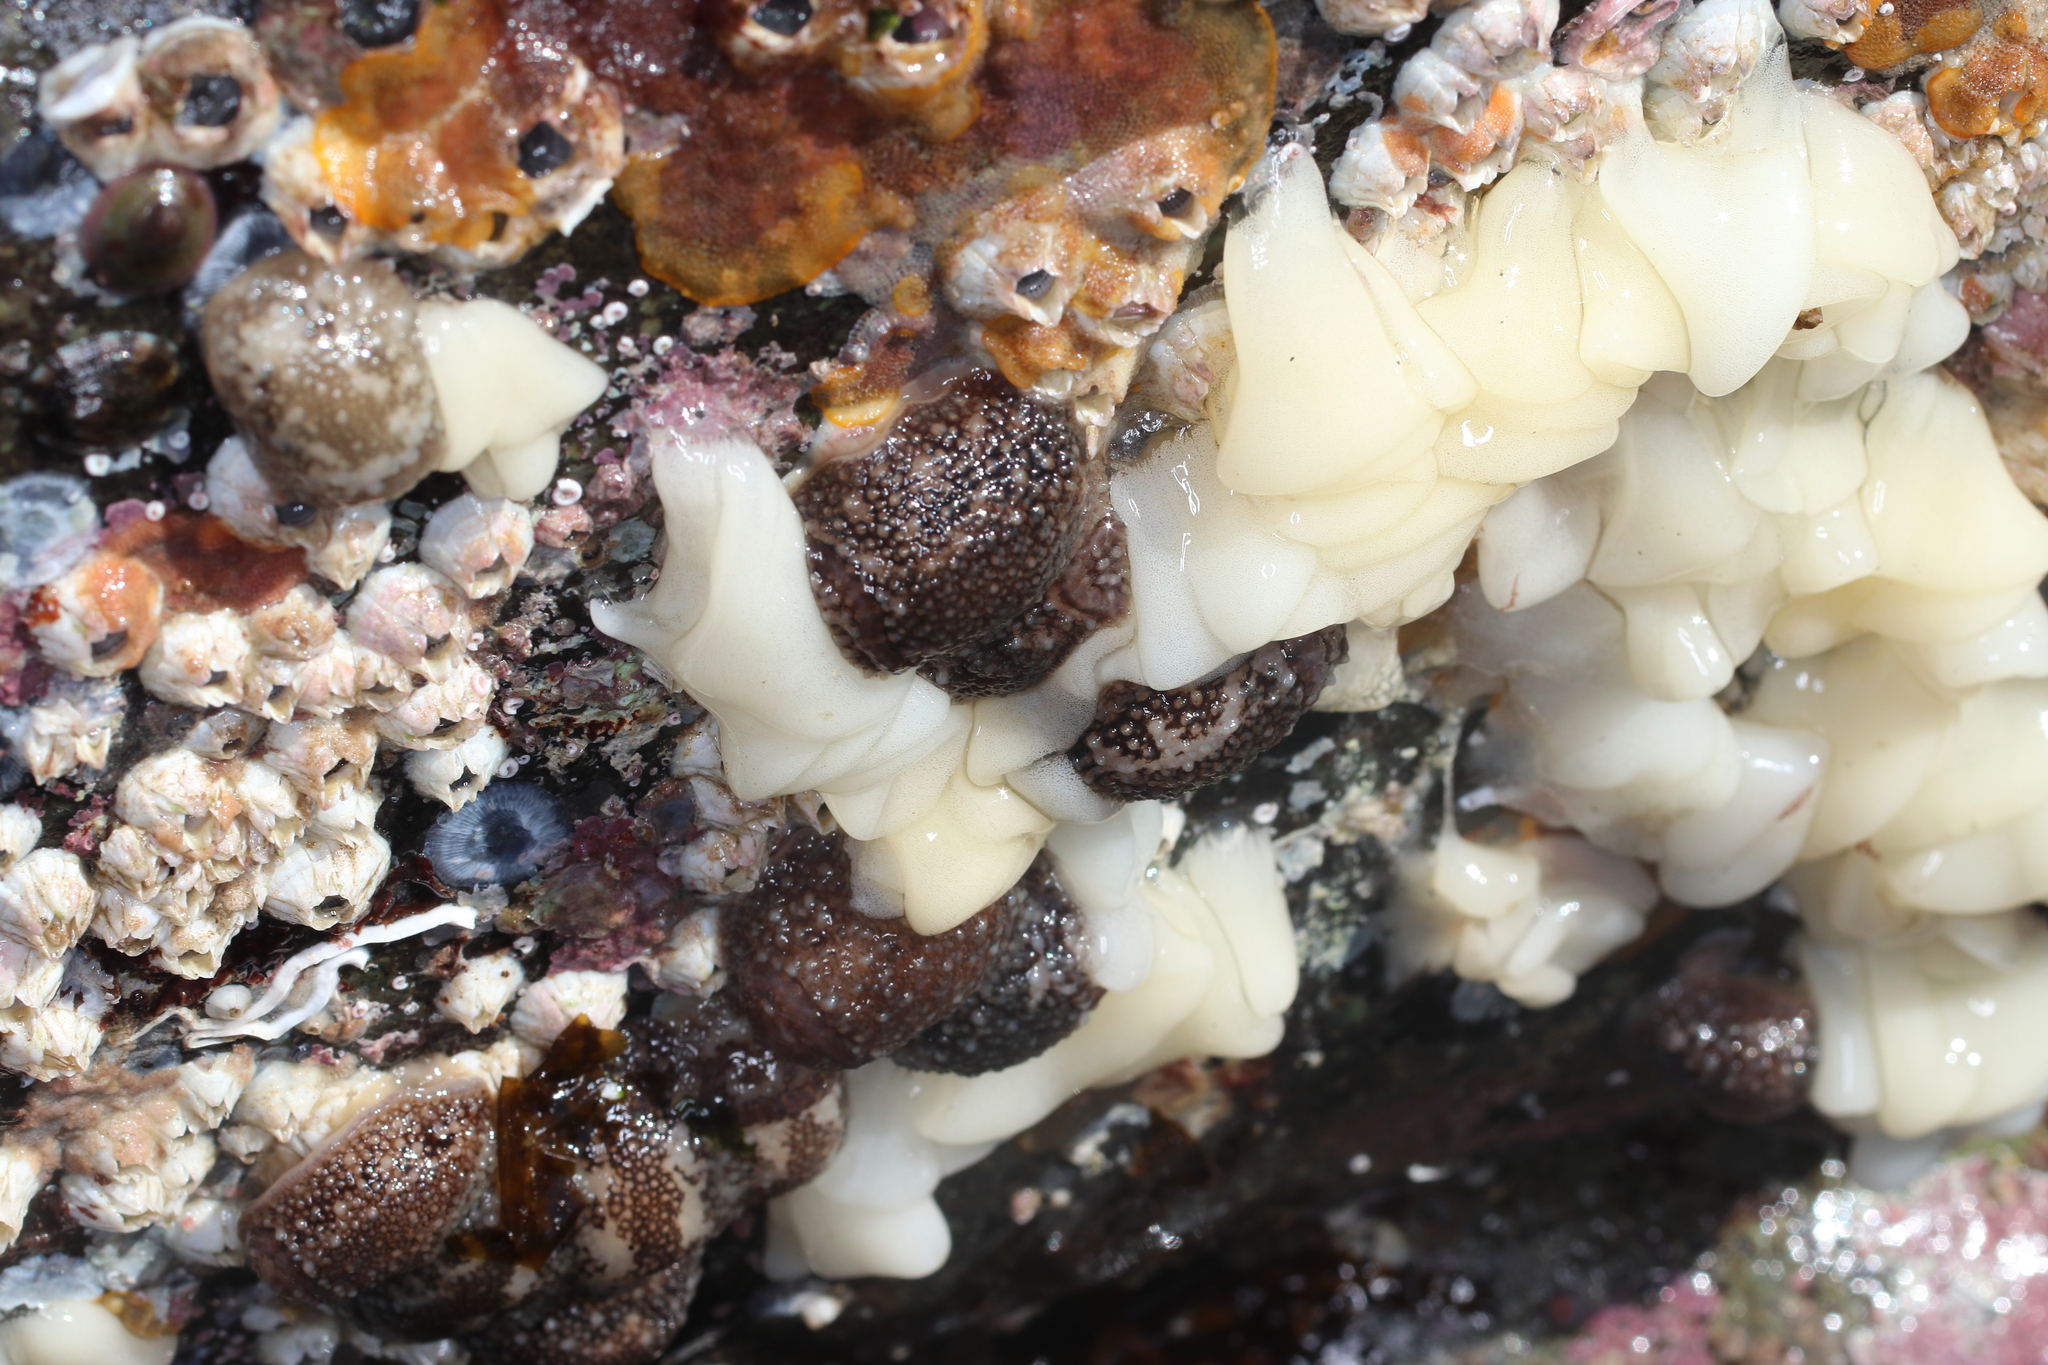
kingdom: Animalia
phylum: Mollusca
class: Gastropoda
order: Nudibranchia
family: Onchidorididae
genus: Onchidoris
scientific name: Onchidoris bilamellata
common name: Barnacle-eating onchidoris
